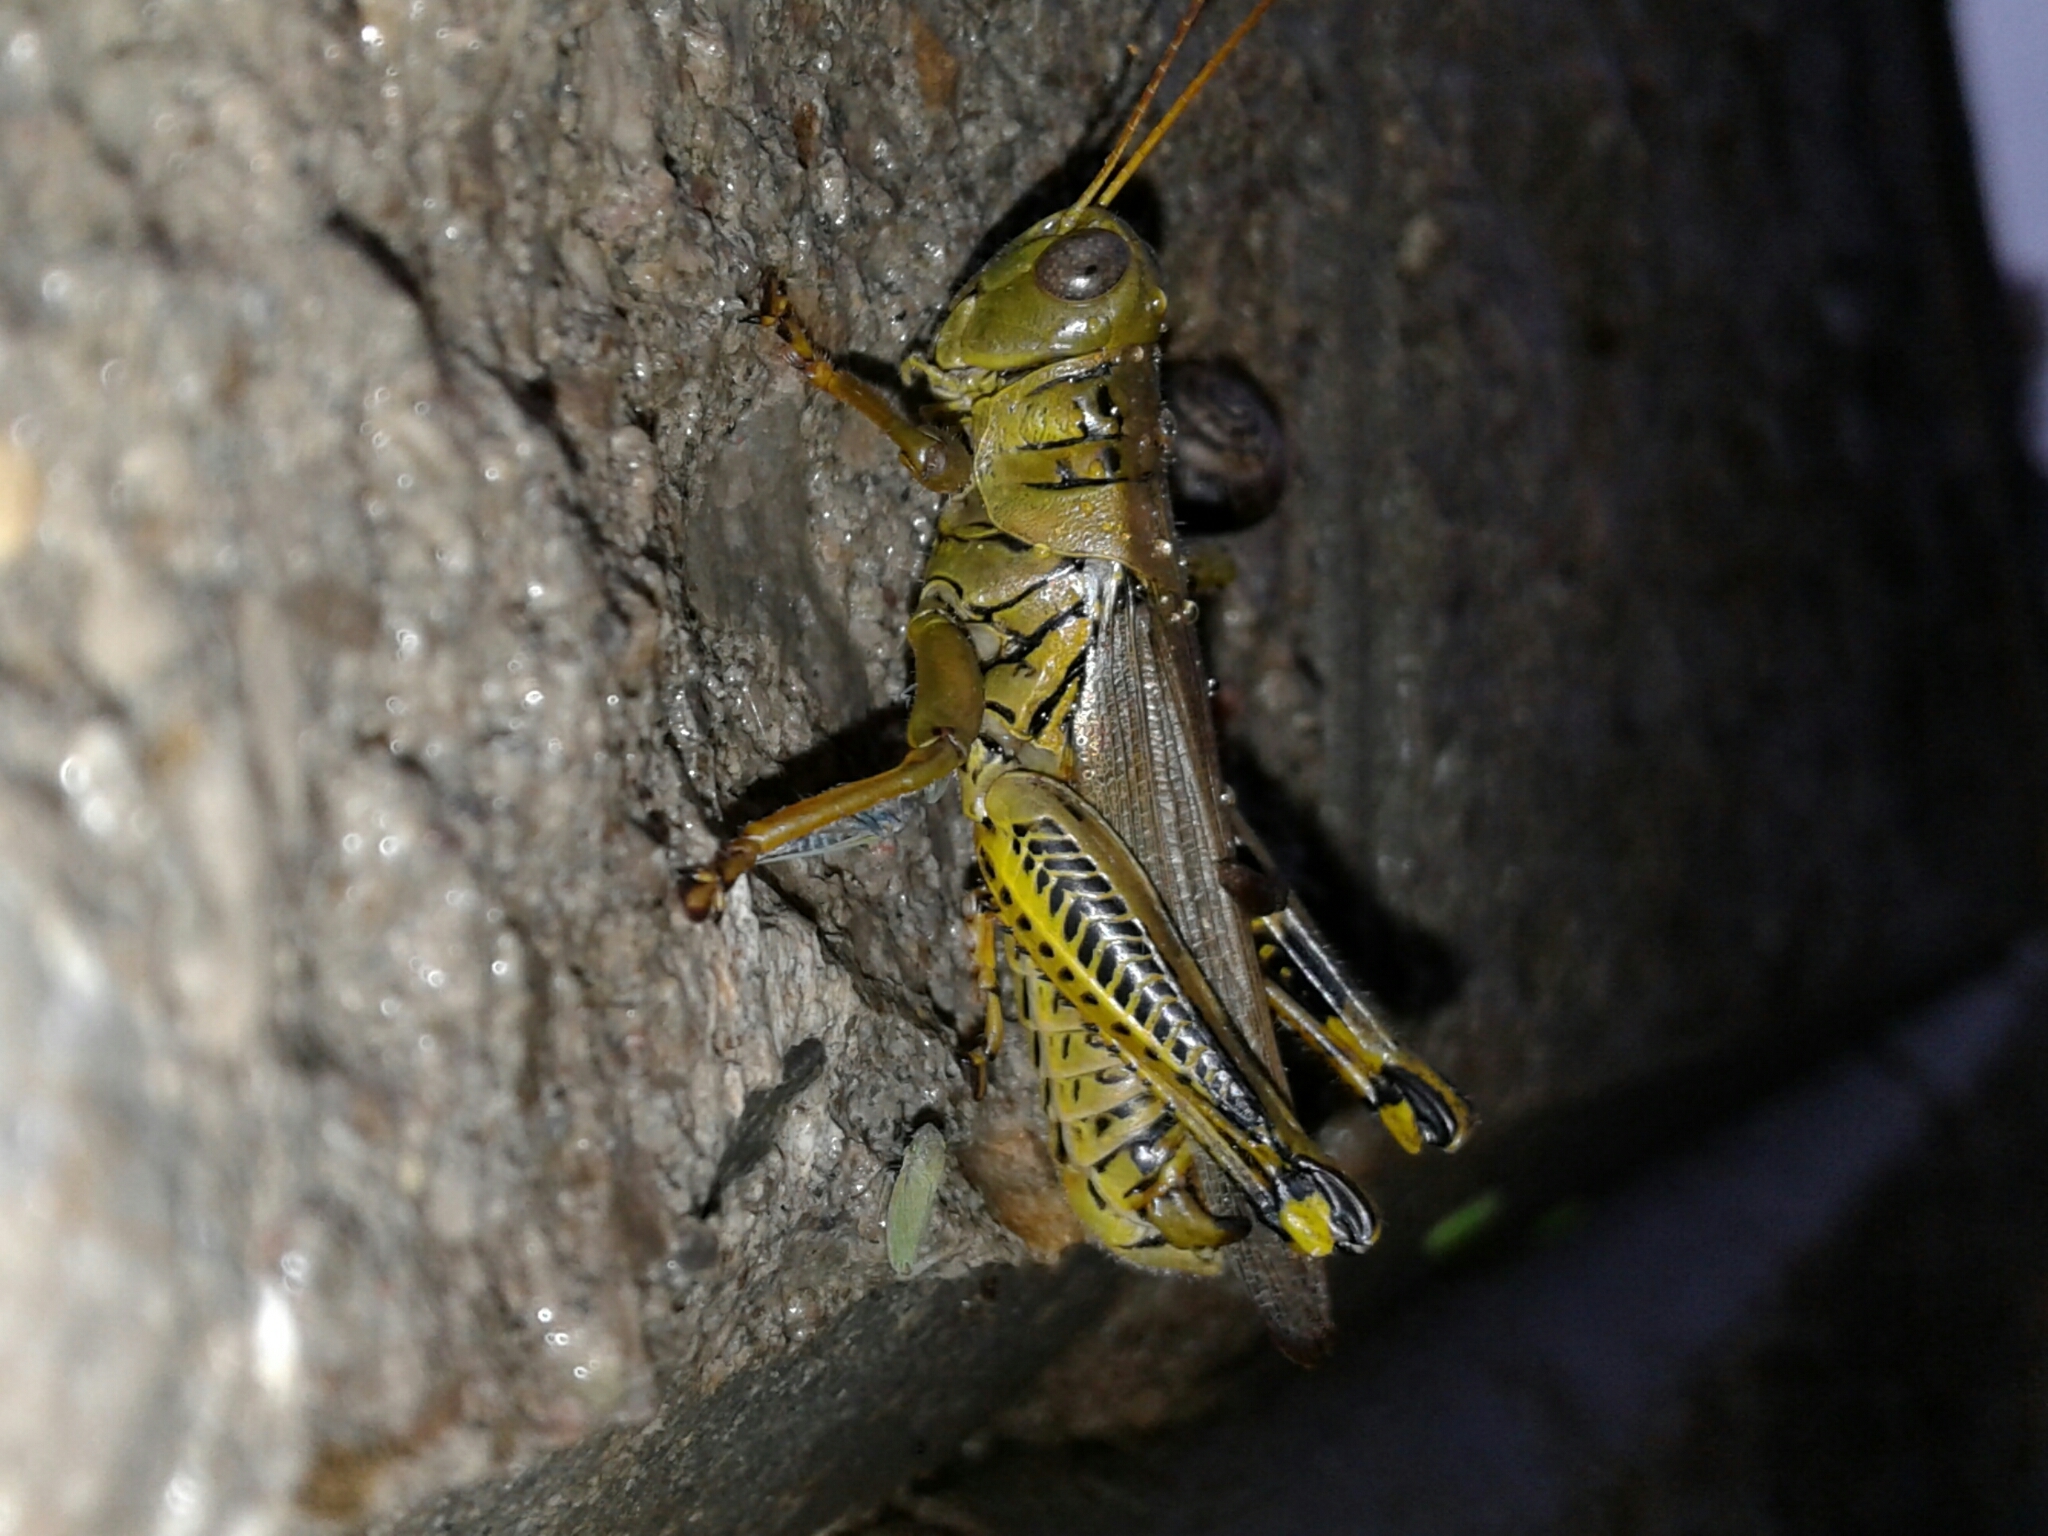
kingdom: Animalia
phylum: Arthropoda
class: Insecta
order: Orthoptera
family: Acrididae
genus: Melanoplus
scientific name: Melanoplus differentialis
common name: Differential grasshopper
